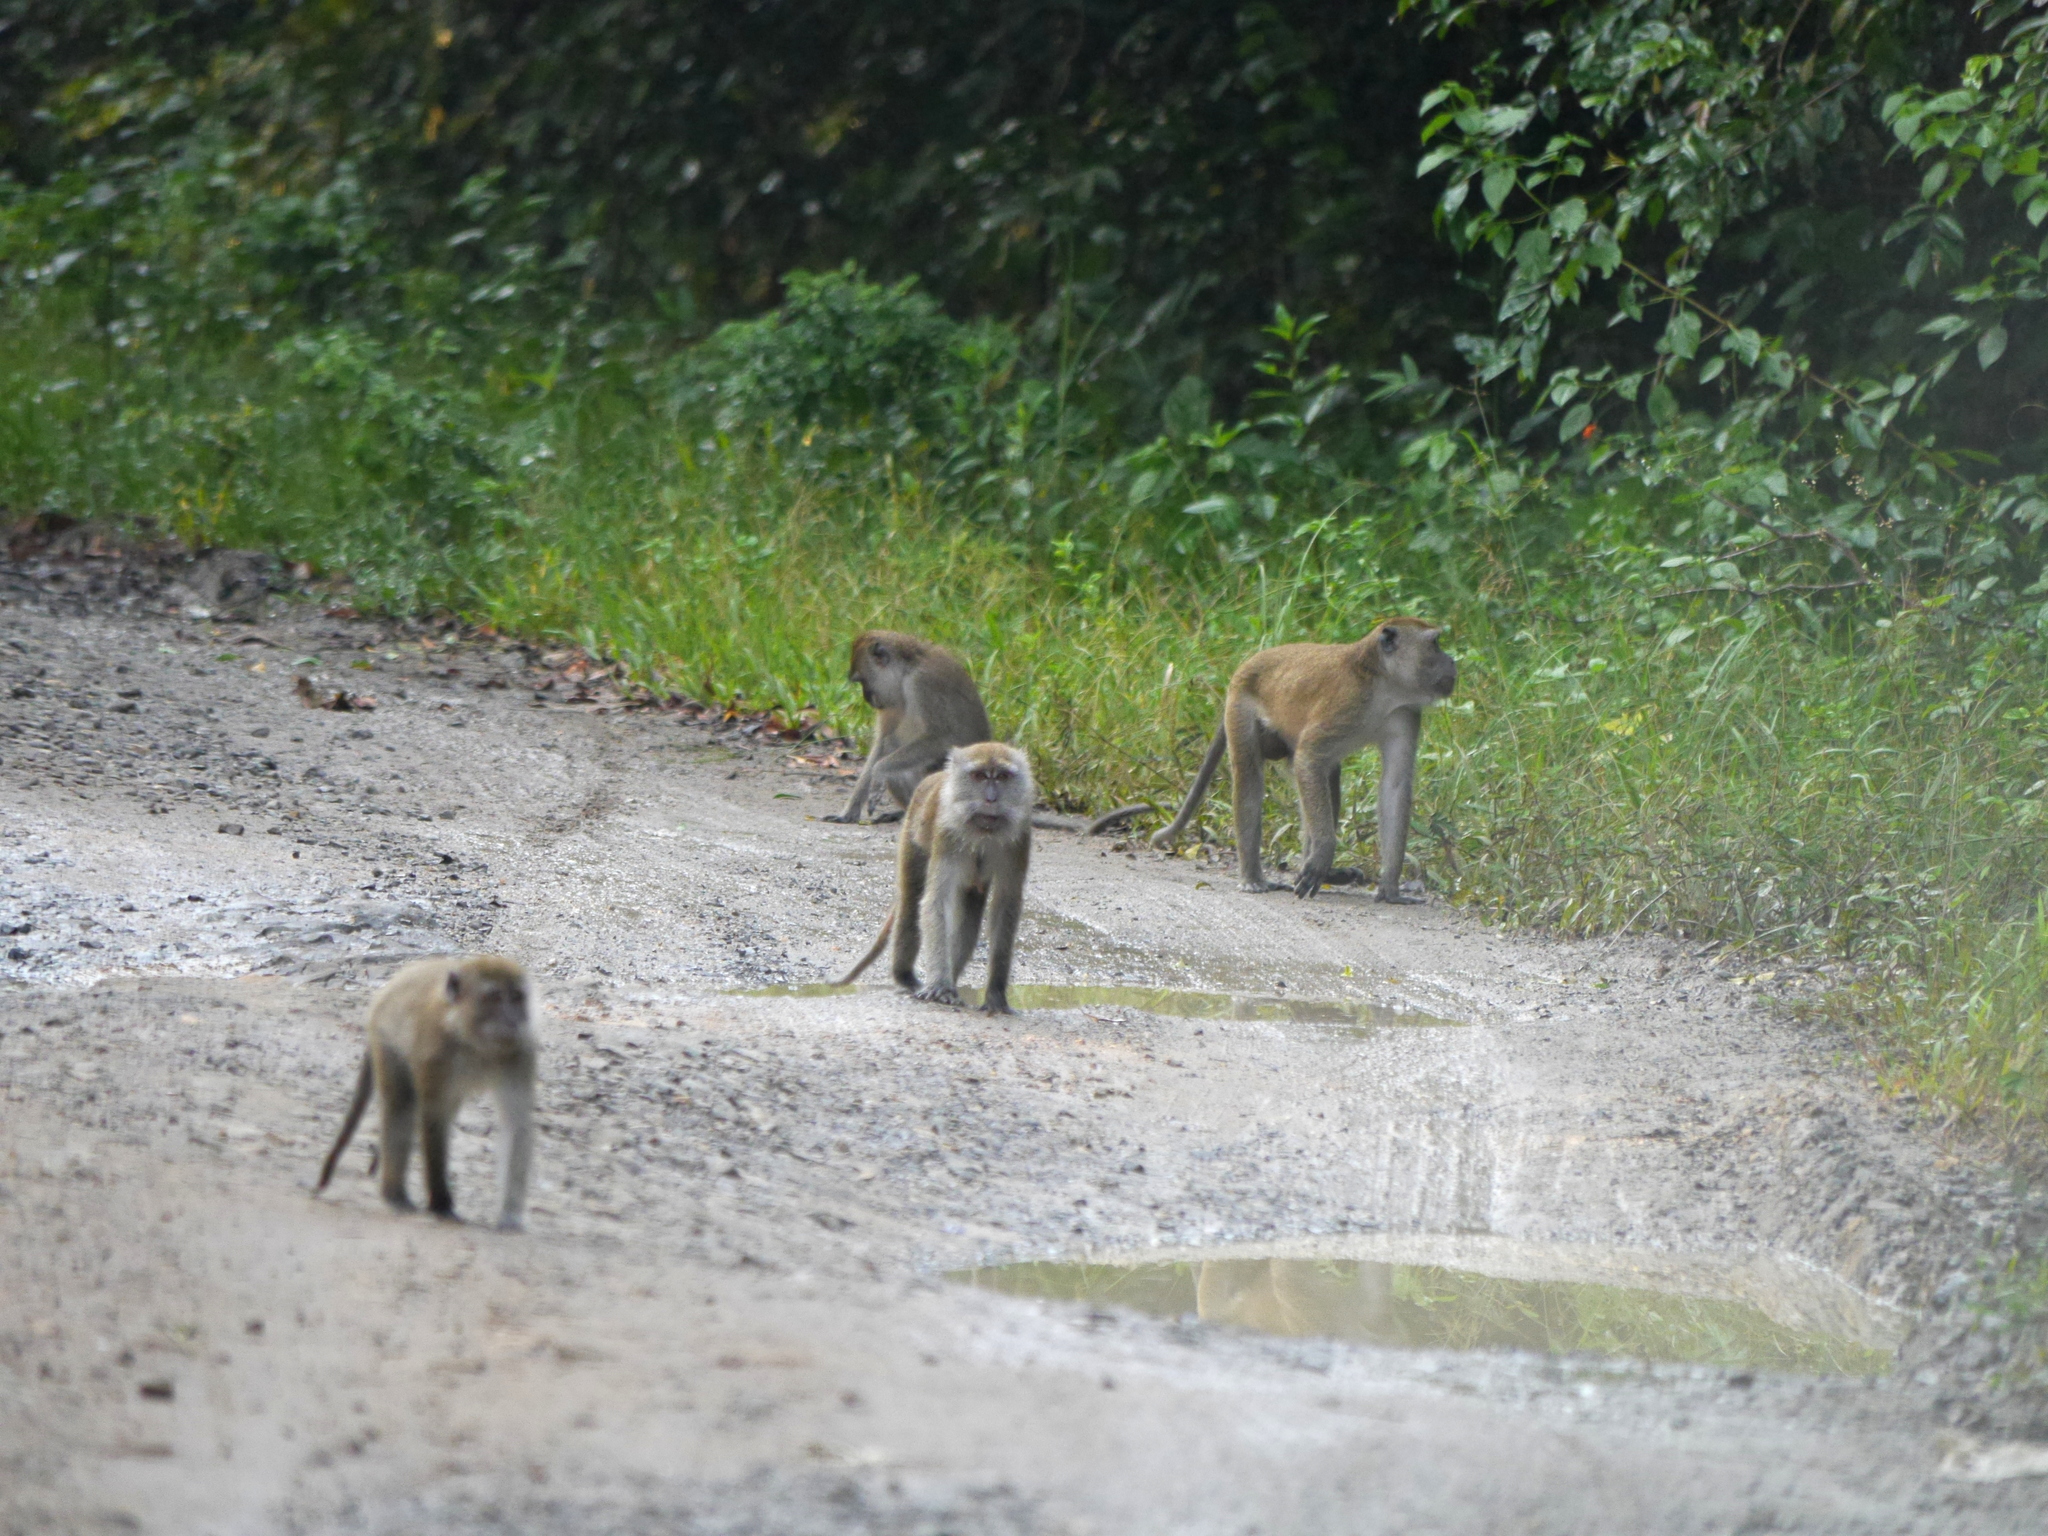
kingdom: Animalia
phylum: Chordata
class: Mammalia
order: Primates
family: Cercopithecidae
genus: Macaca
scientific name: Macaca fascicularis
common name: Crab-eating macaque
